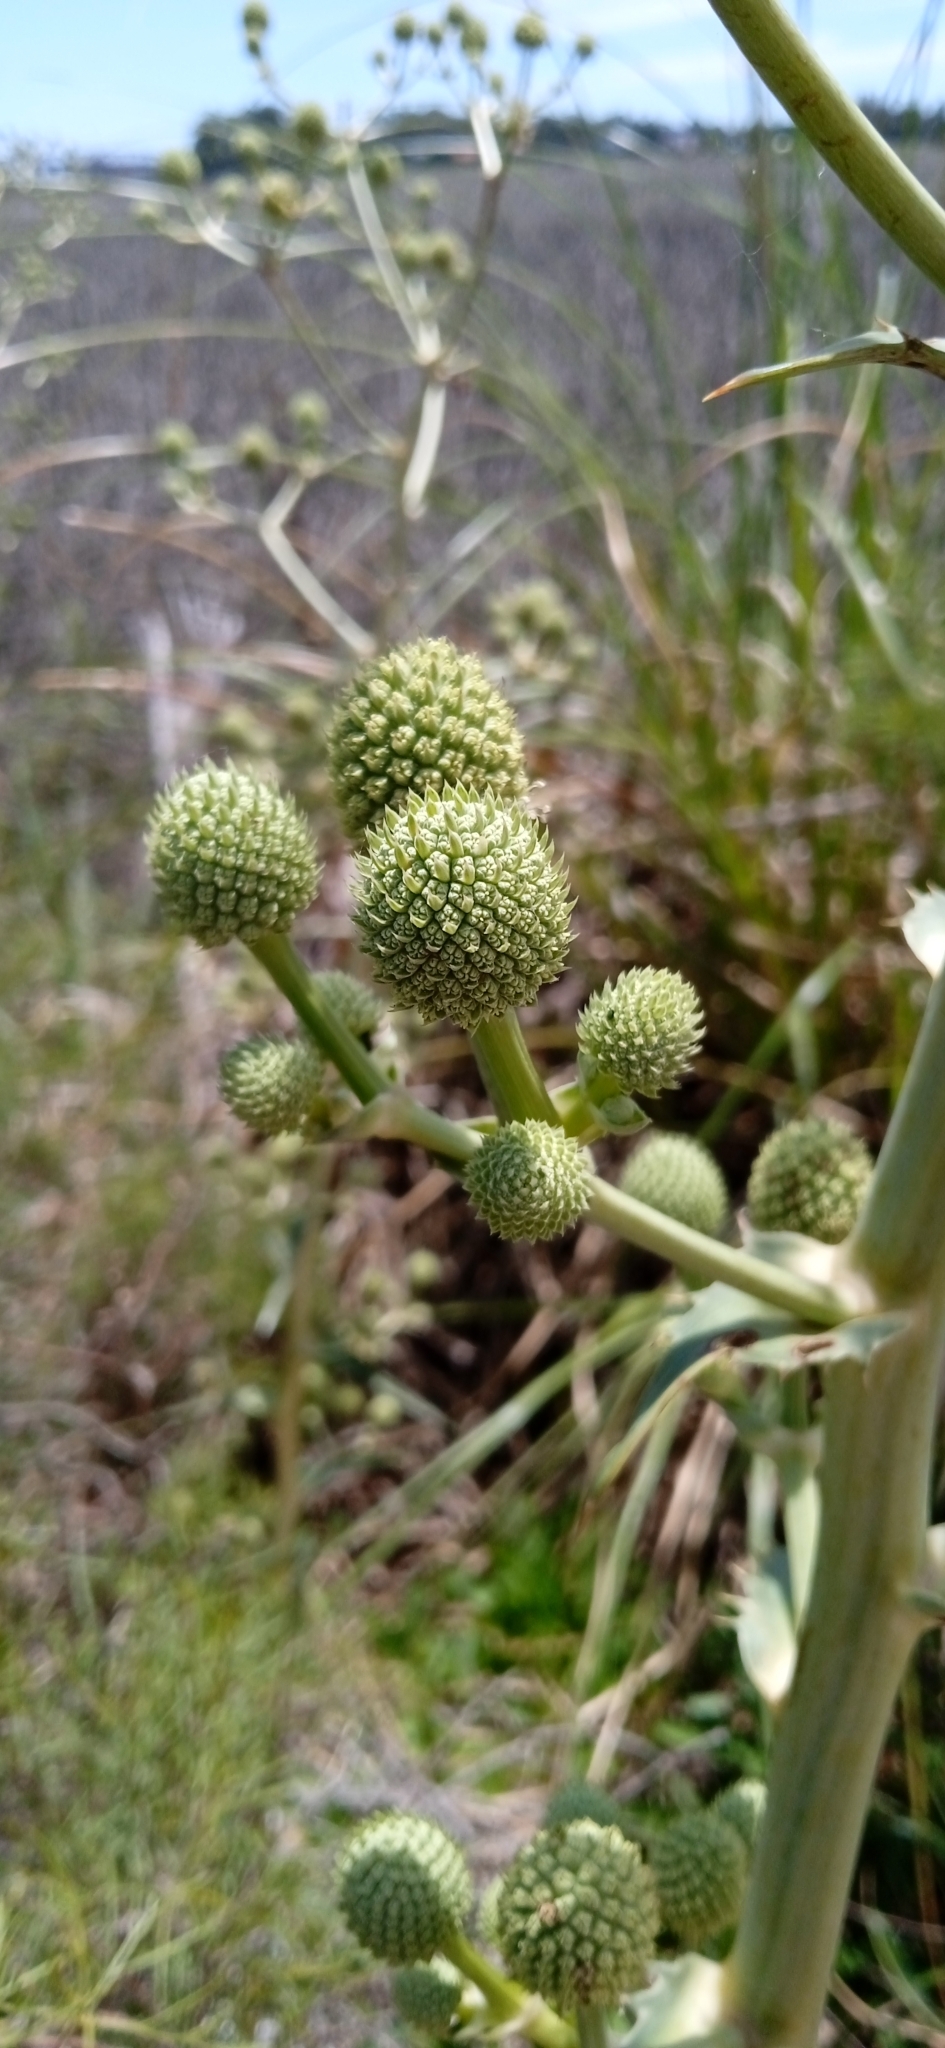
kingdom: Plantae
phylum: Tracheophyta
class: Magnoliopsida
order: Apiales
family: Apiaceae
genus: Eryngium
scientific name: Eryngium horridum
